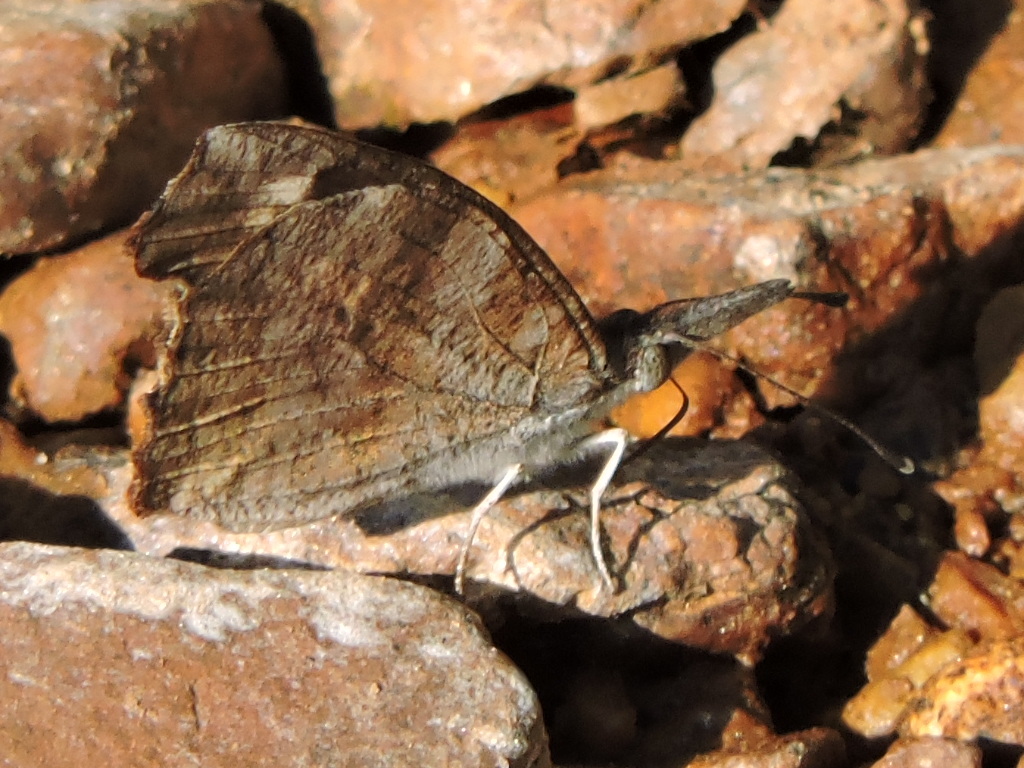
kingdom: Animalia
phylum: Arthropoda
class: Insecta
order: Lepidoptera
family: Nymphalidae
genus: Libytheana
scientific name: Libytheana carinenta
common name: American snout
